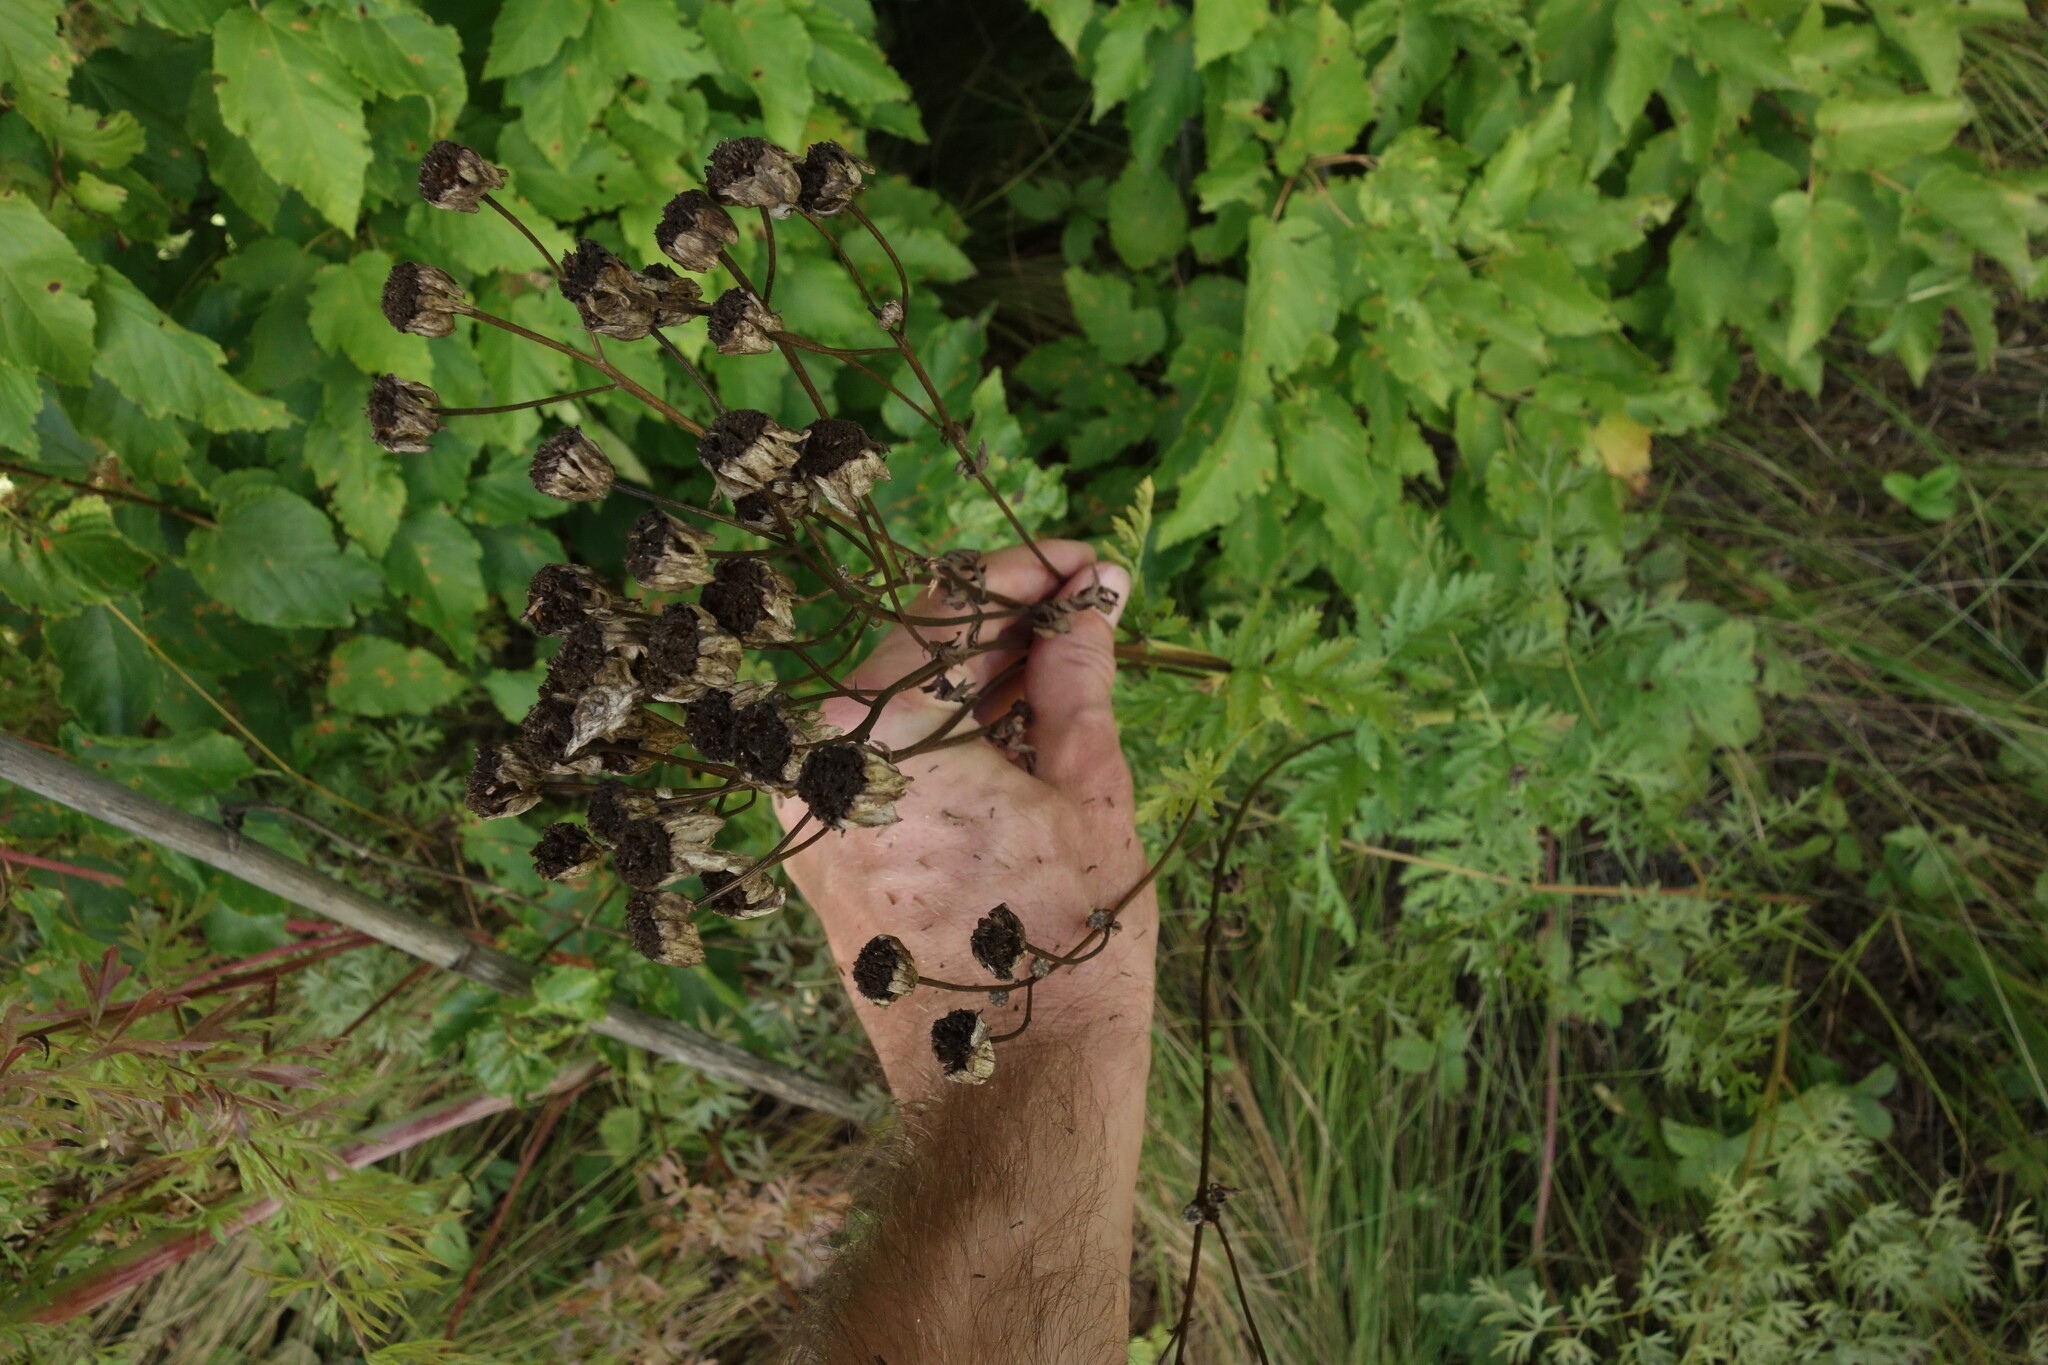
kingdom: Plantae
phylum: Tracheophyta
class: Magnoliopsida
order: Asterales
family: Asteraceae
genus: Tanacetum
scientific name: Tanacetum corymbosum
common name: Scentless feverfew
